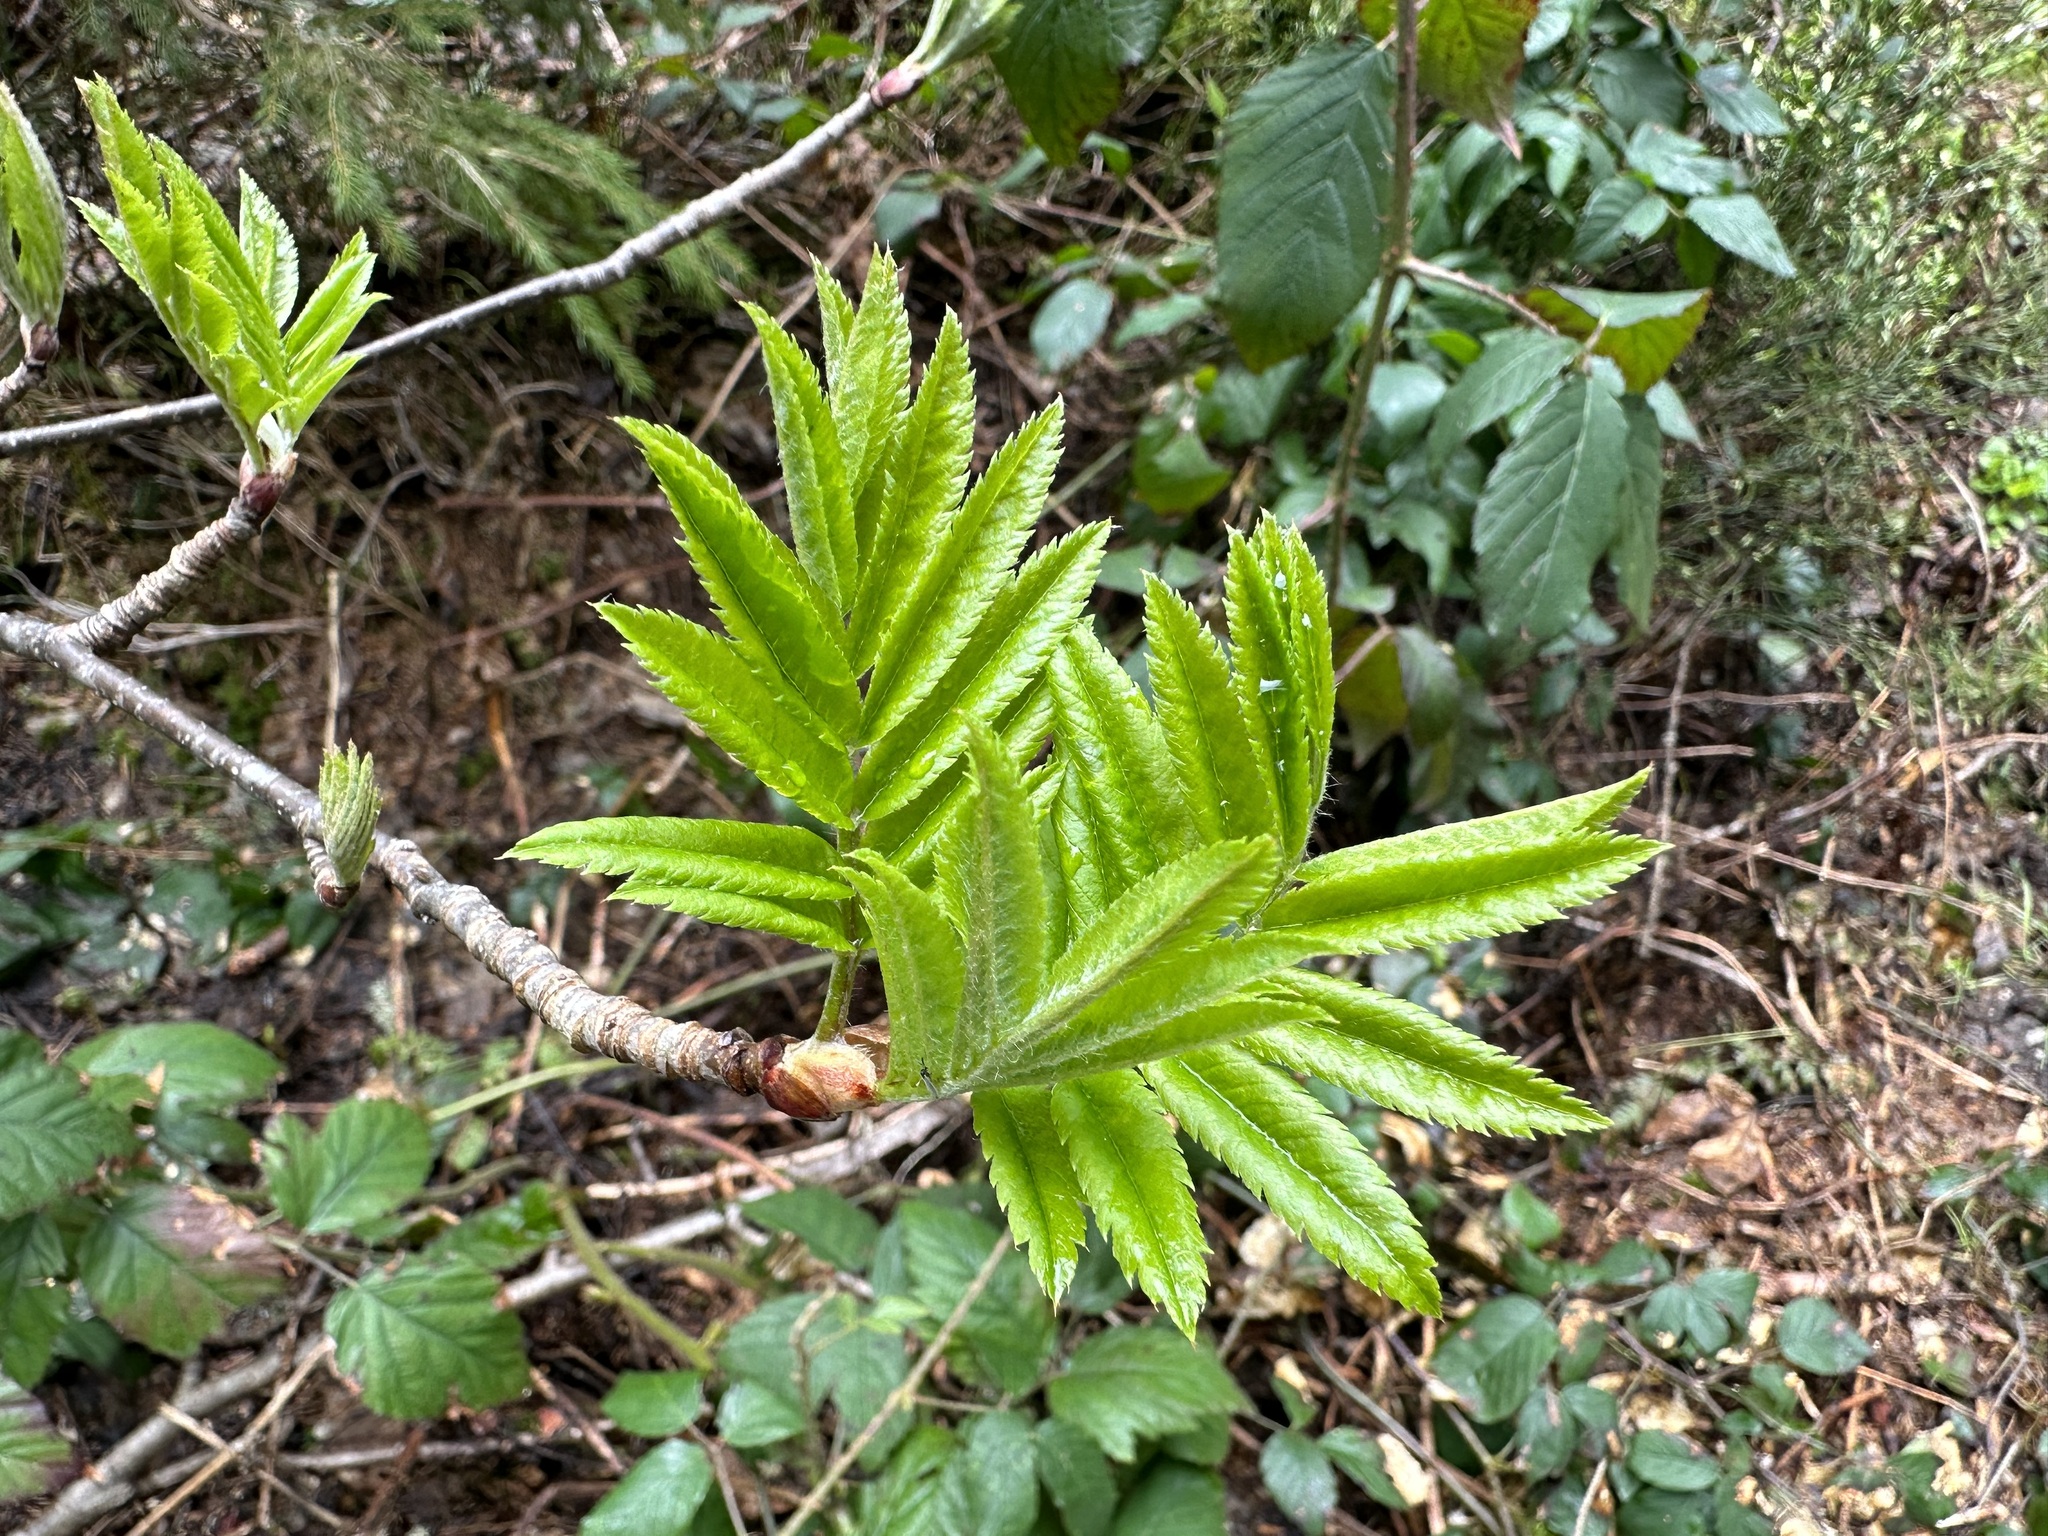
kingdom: Plantae
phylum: Tracheophyta
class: Magnoliopsida
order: Rosales
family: Rosaceae
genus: Sorbus
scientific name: Sorbus aucuparia
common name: Rowan
